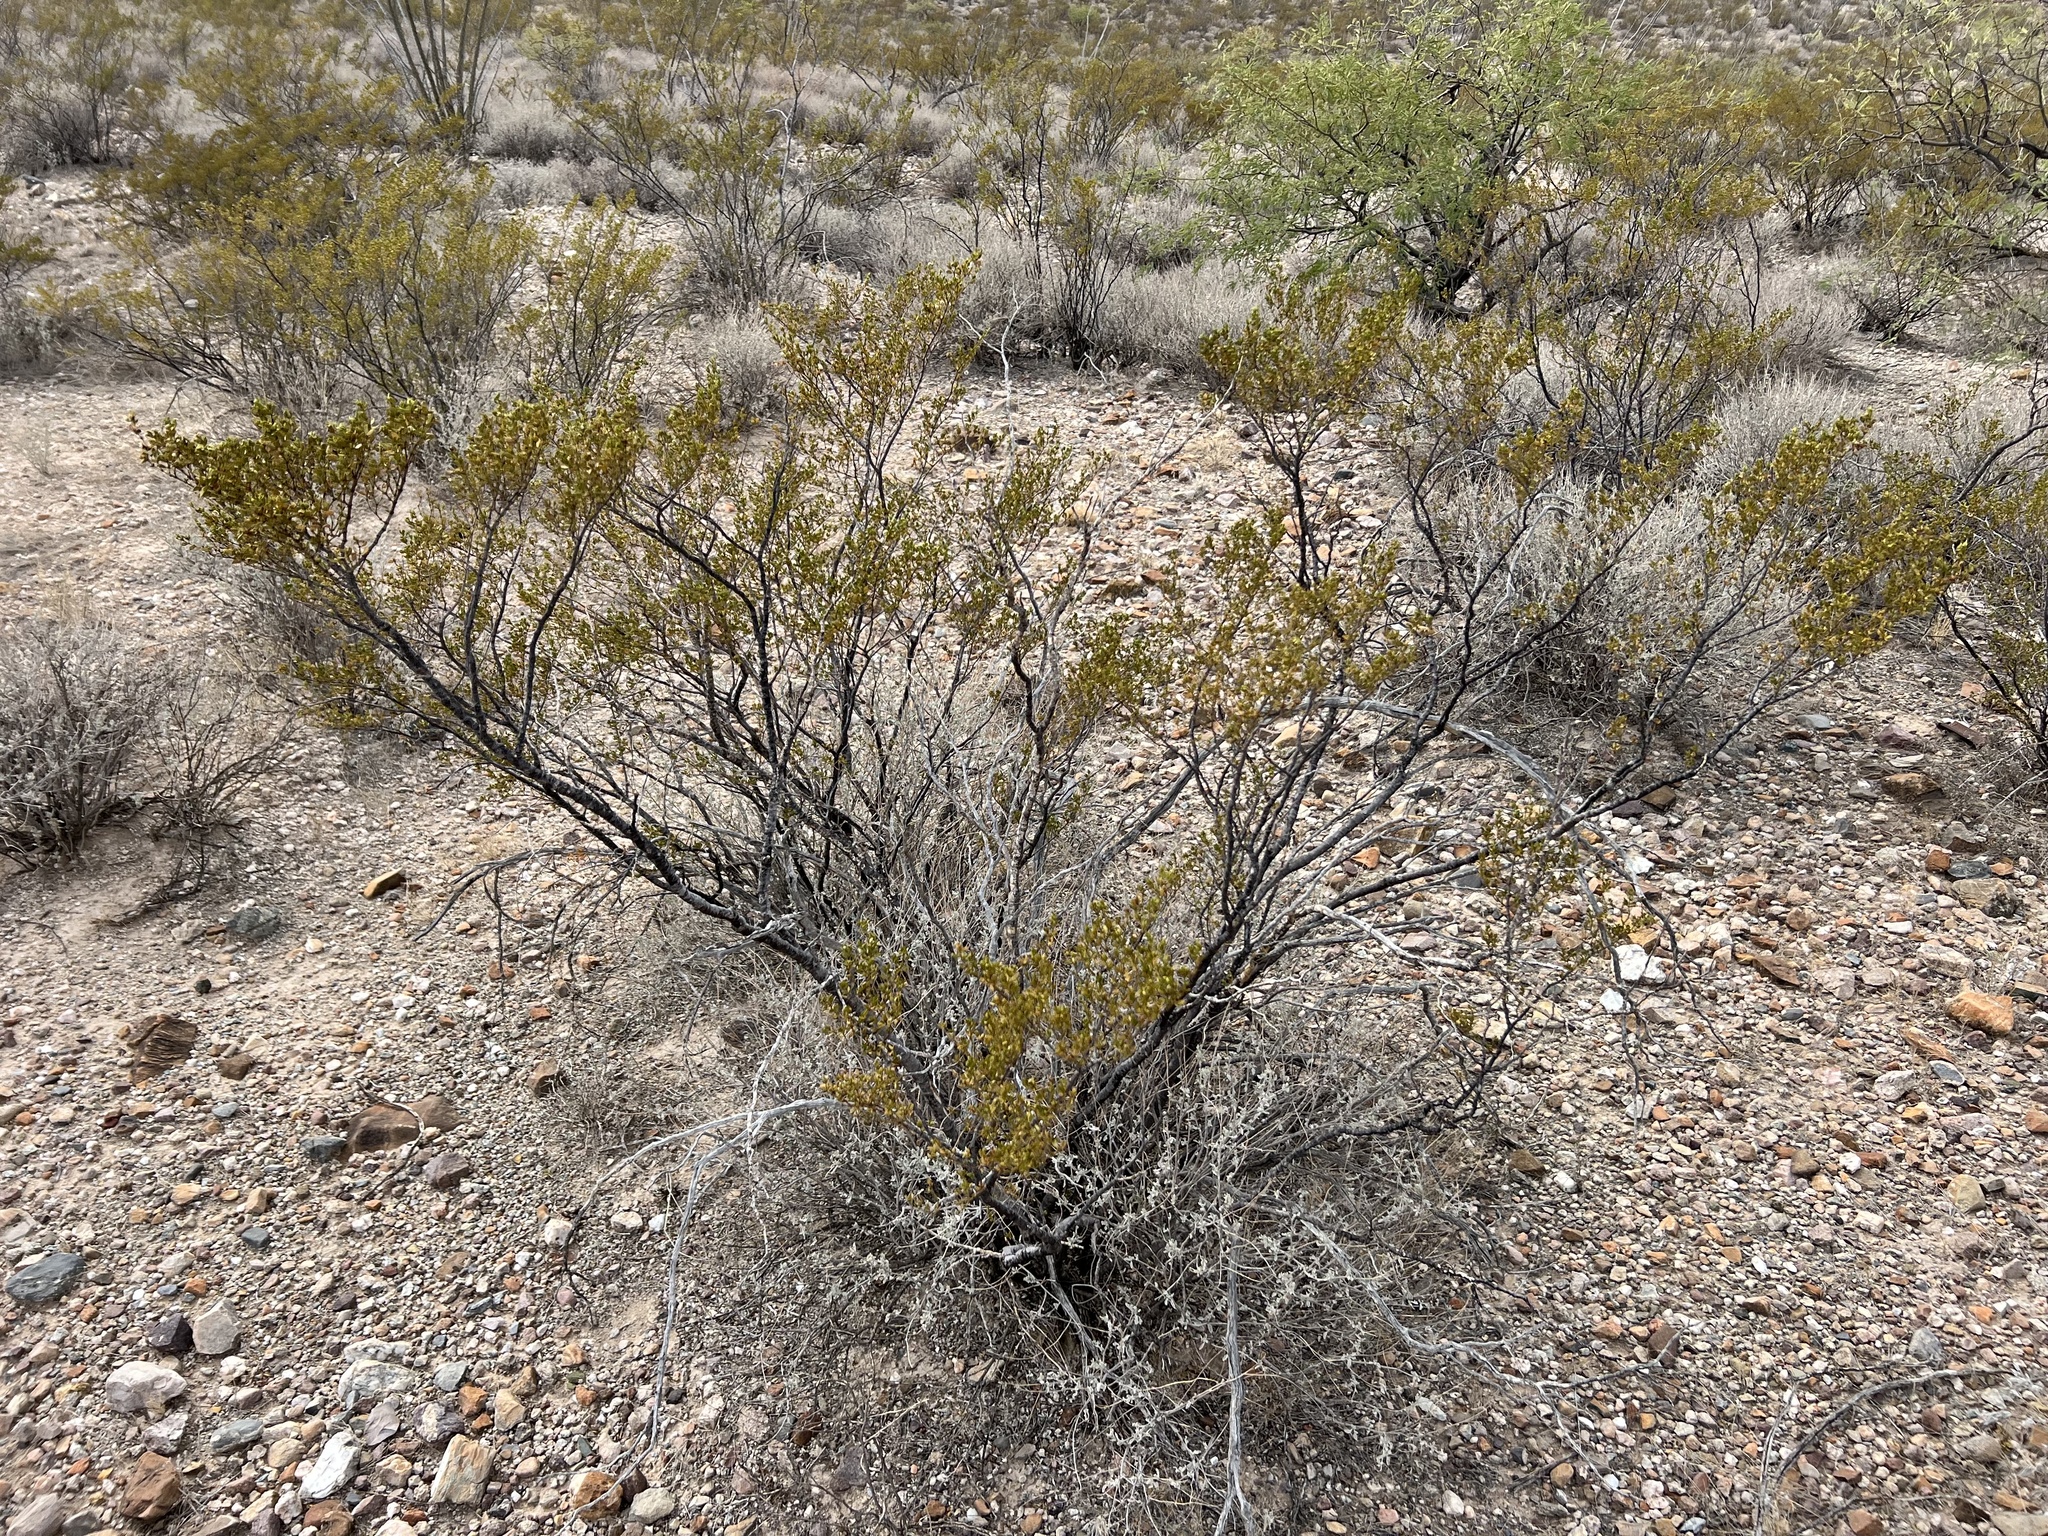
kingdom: Plantae
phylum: Tracheophyta
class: Magnoliopsida
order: Zygophyllales
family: Zygophyllaceae
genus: Larrea
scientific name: Larrea tridentata
